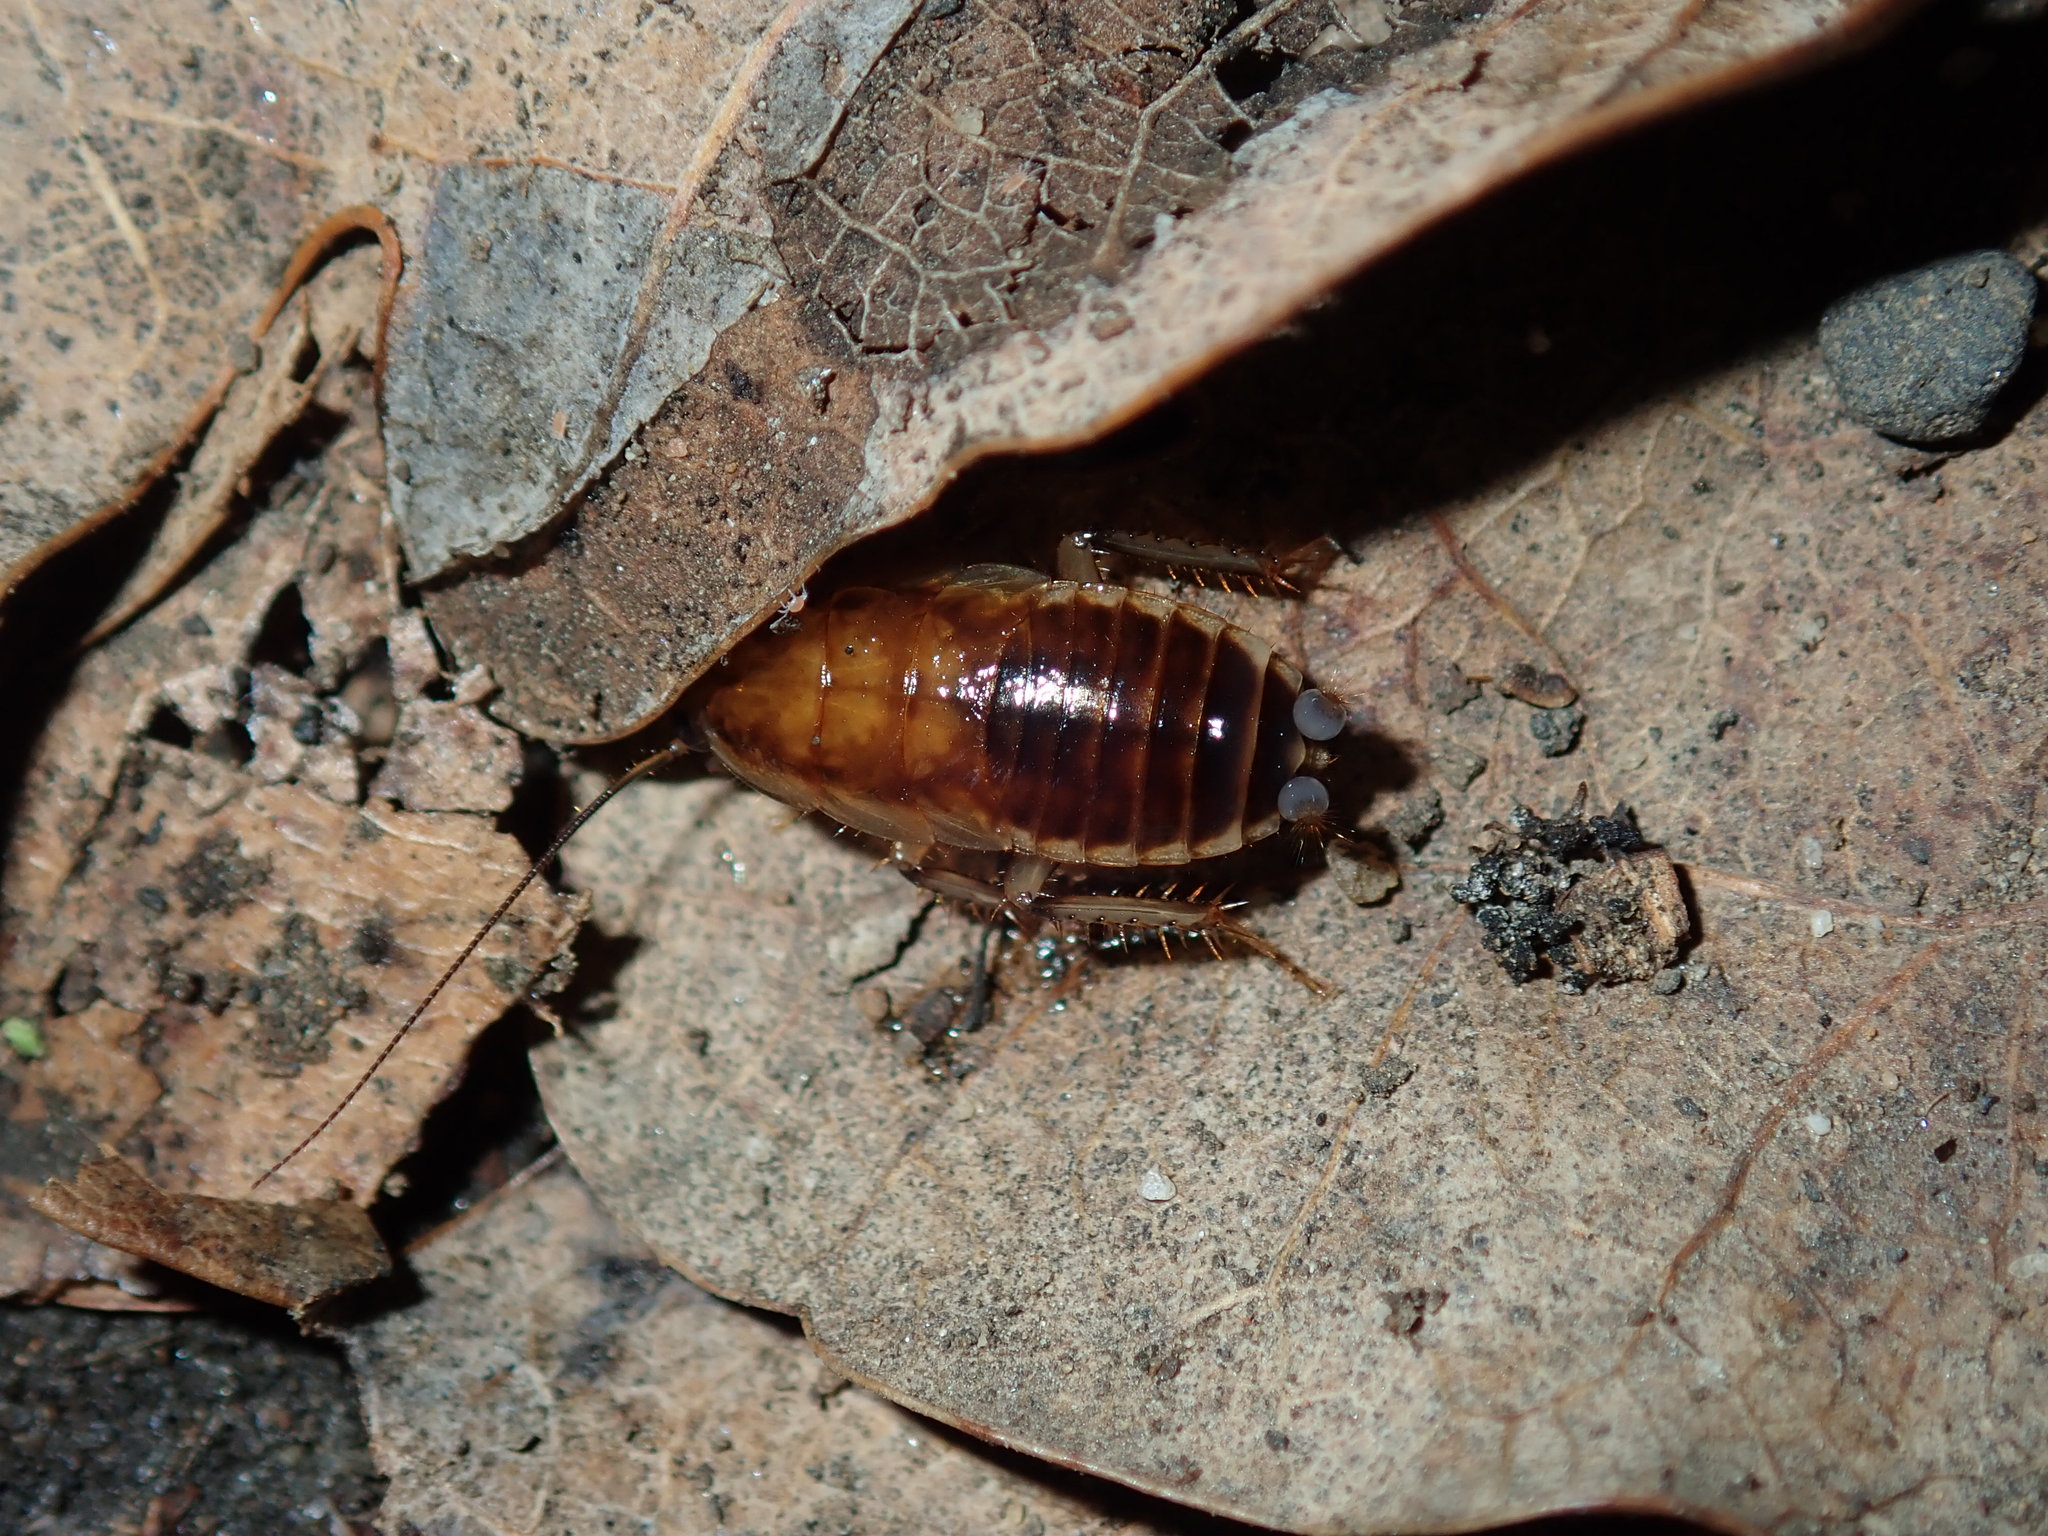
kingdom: Animalia
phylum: Arthropoda
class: Insecta
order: Blattodea
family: Blattidae
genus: Temnelytra
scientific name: Temnelytra truncata
